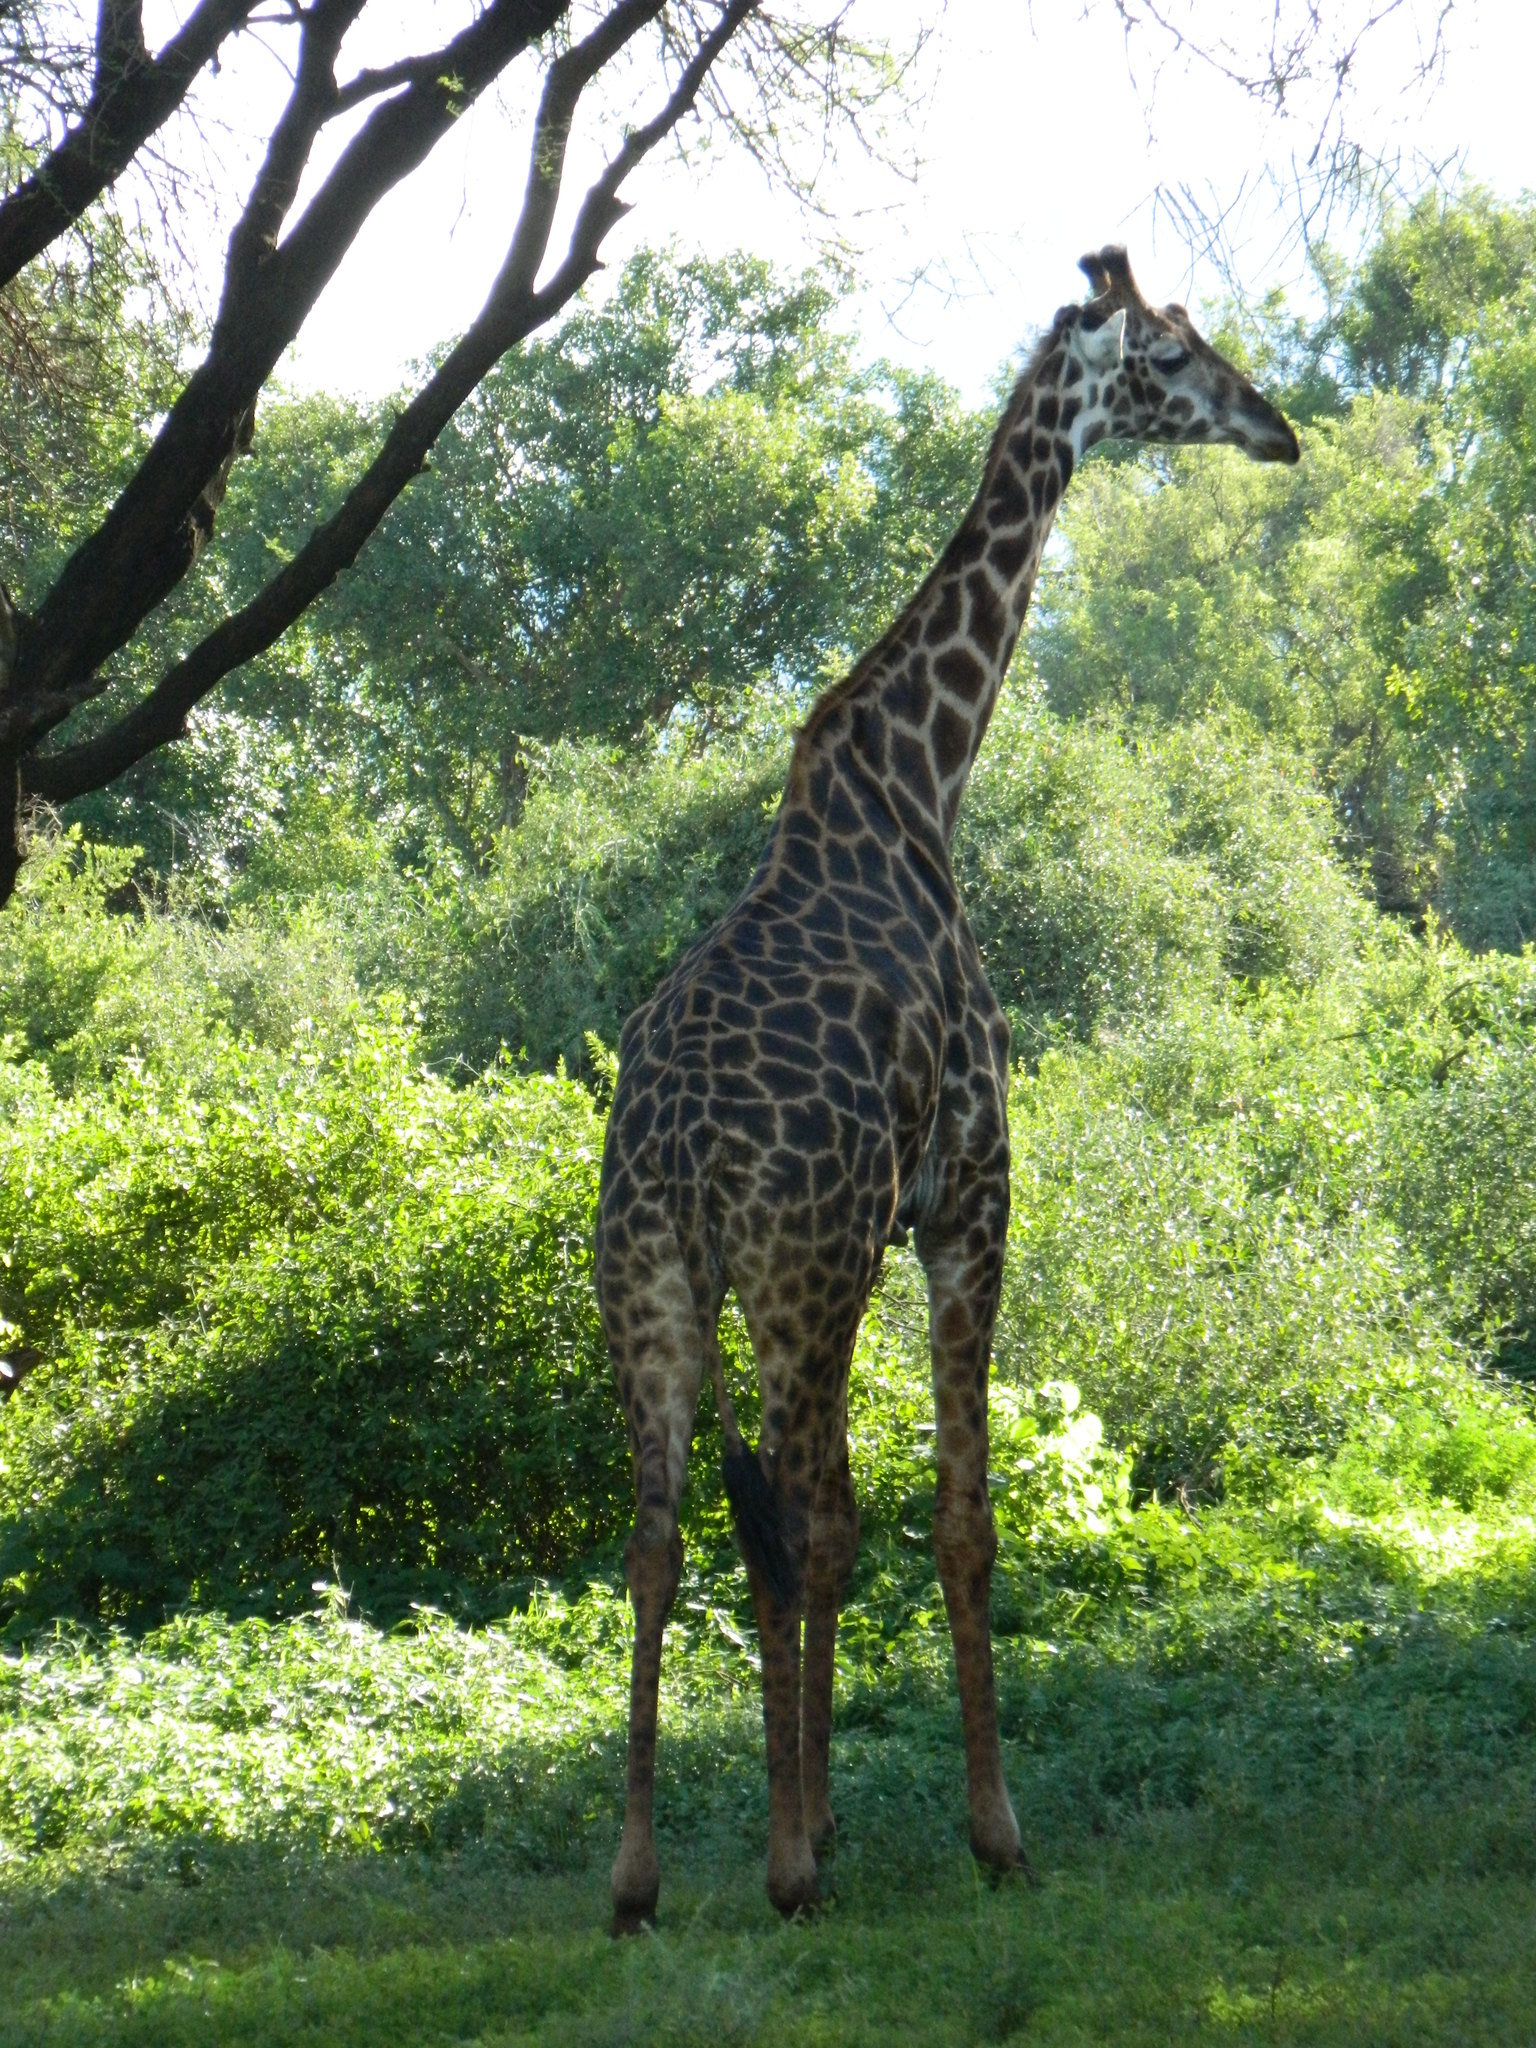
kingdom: Animalia
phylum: Chordata
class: Mammalia
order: Artiodactyla
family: Giraffidae
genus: Giraffa
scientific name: Giraffa tippelskirchi
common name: Masai giraffe
